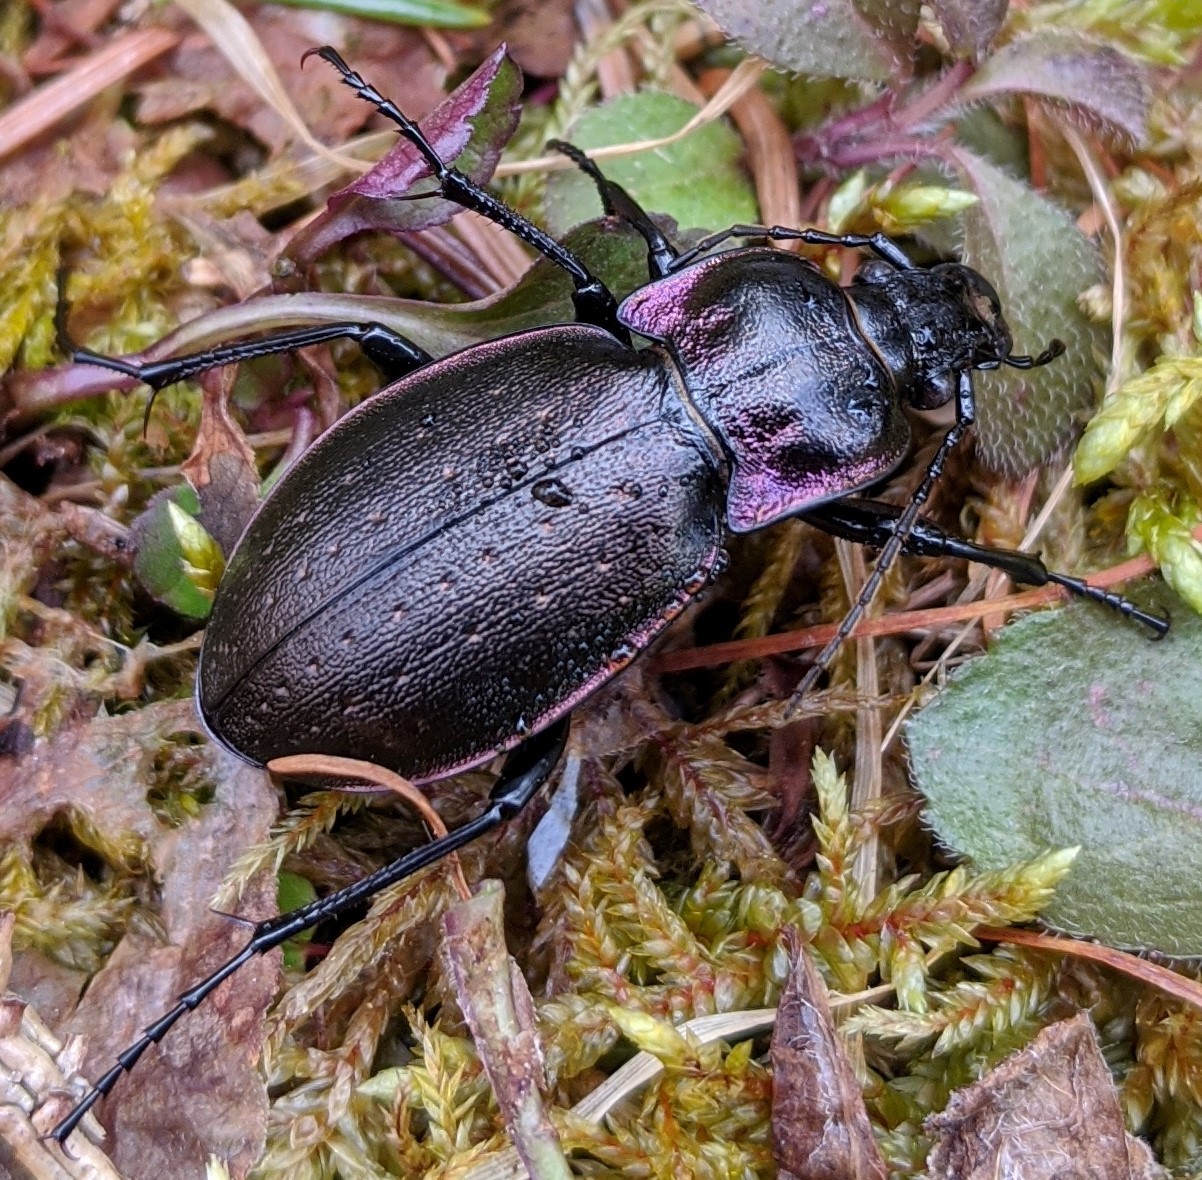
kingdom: Animalia
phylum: Arthropoda
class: Insecta
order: Coleoptera
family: Carabidae
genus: Carabus
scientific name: Carabus nemoralis
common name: European ground beetle
